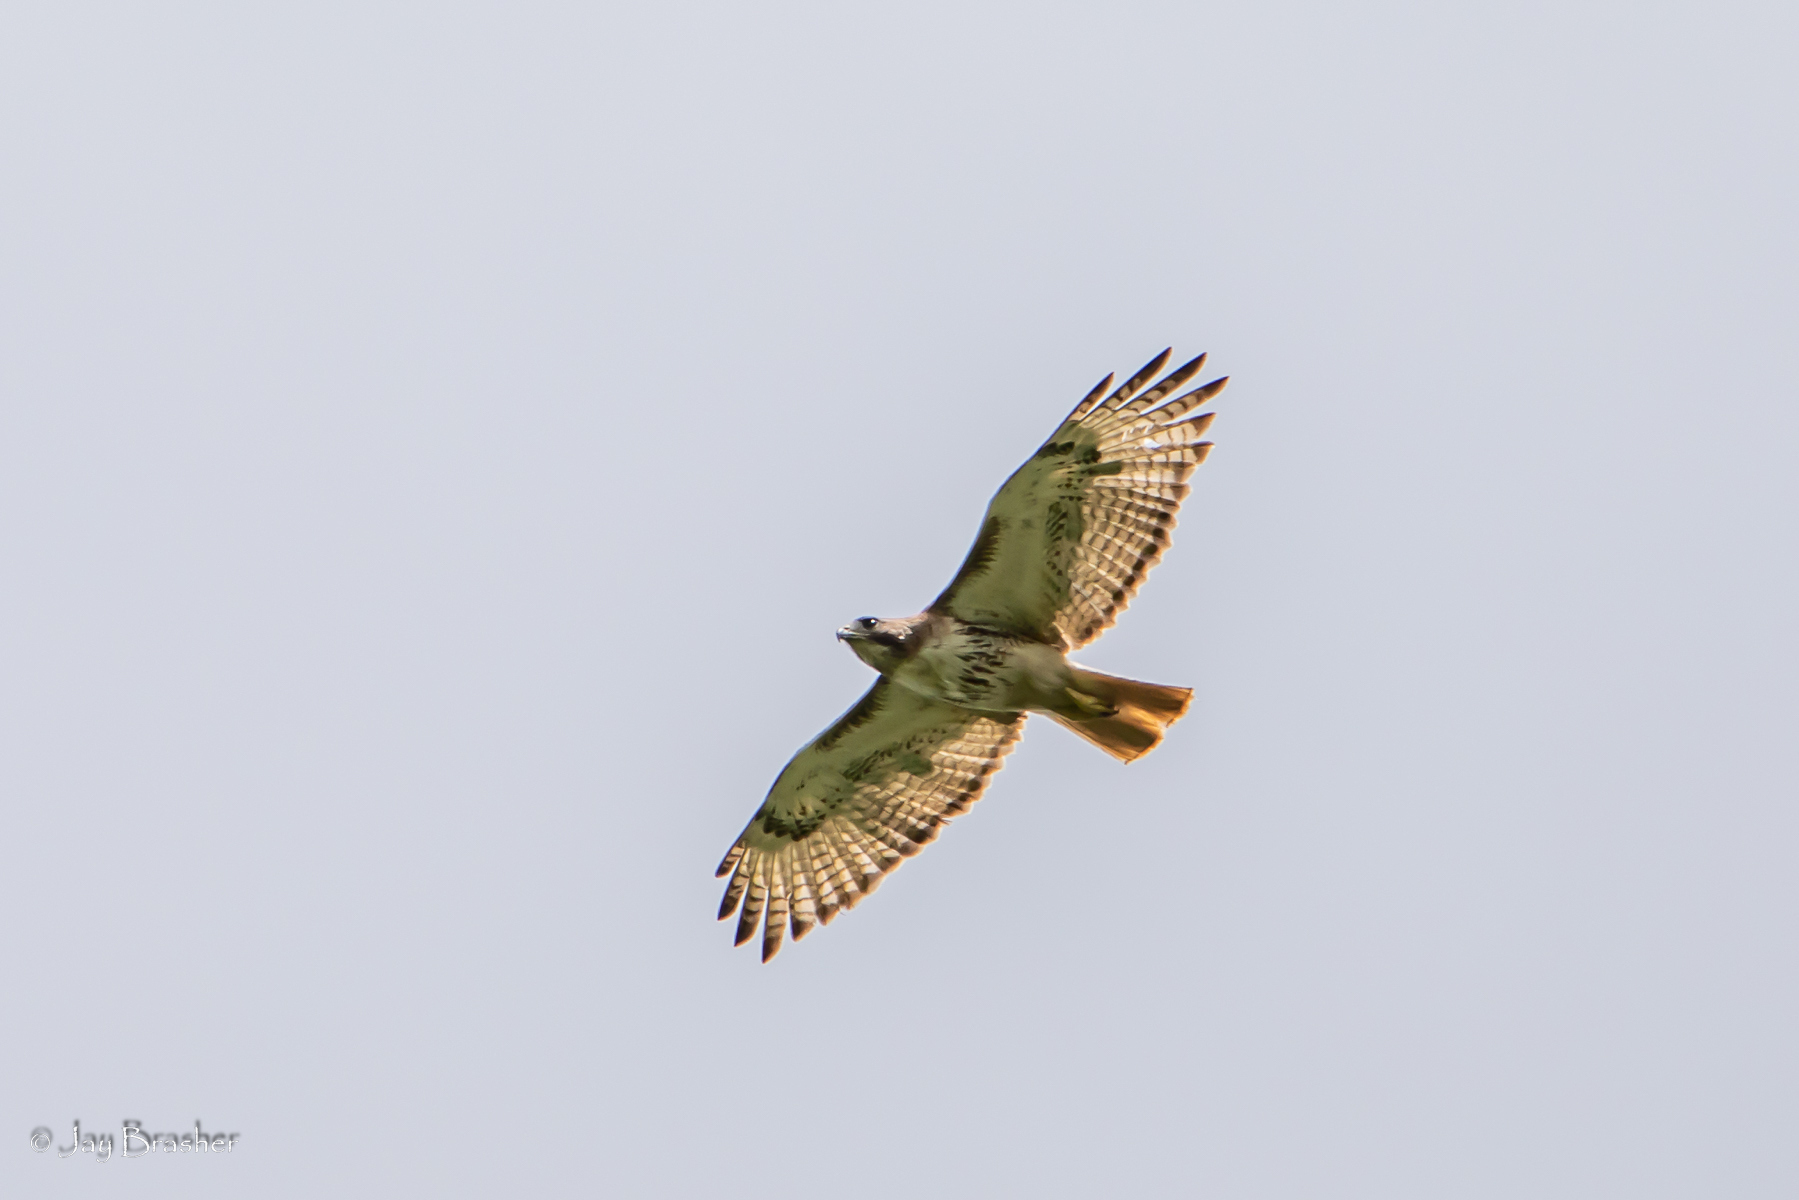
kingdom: Animalia
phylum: Chordata
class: Aves
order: Accipitriformes
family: Accipitridae
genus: Buteo
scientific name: Buteo jamaicensis
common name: Red-tailed hawk
